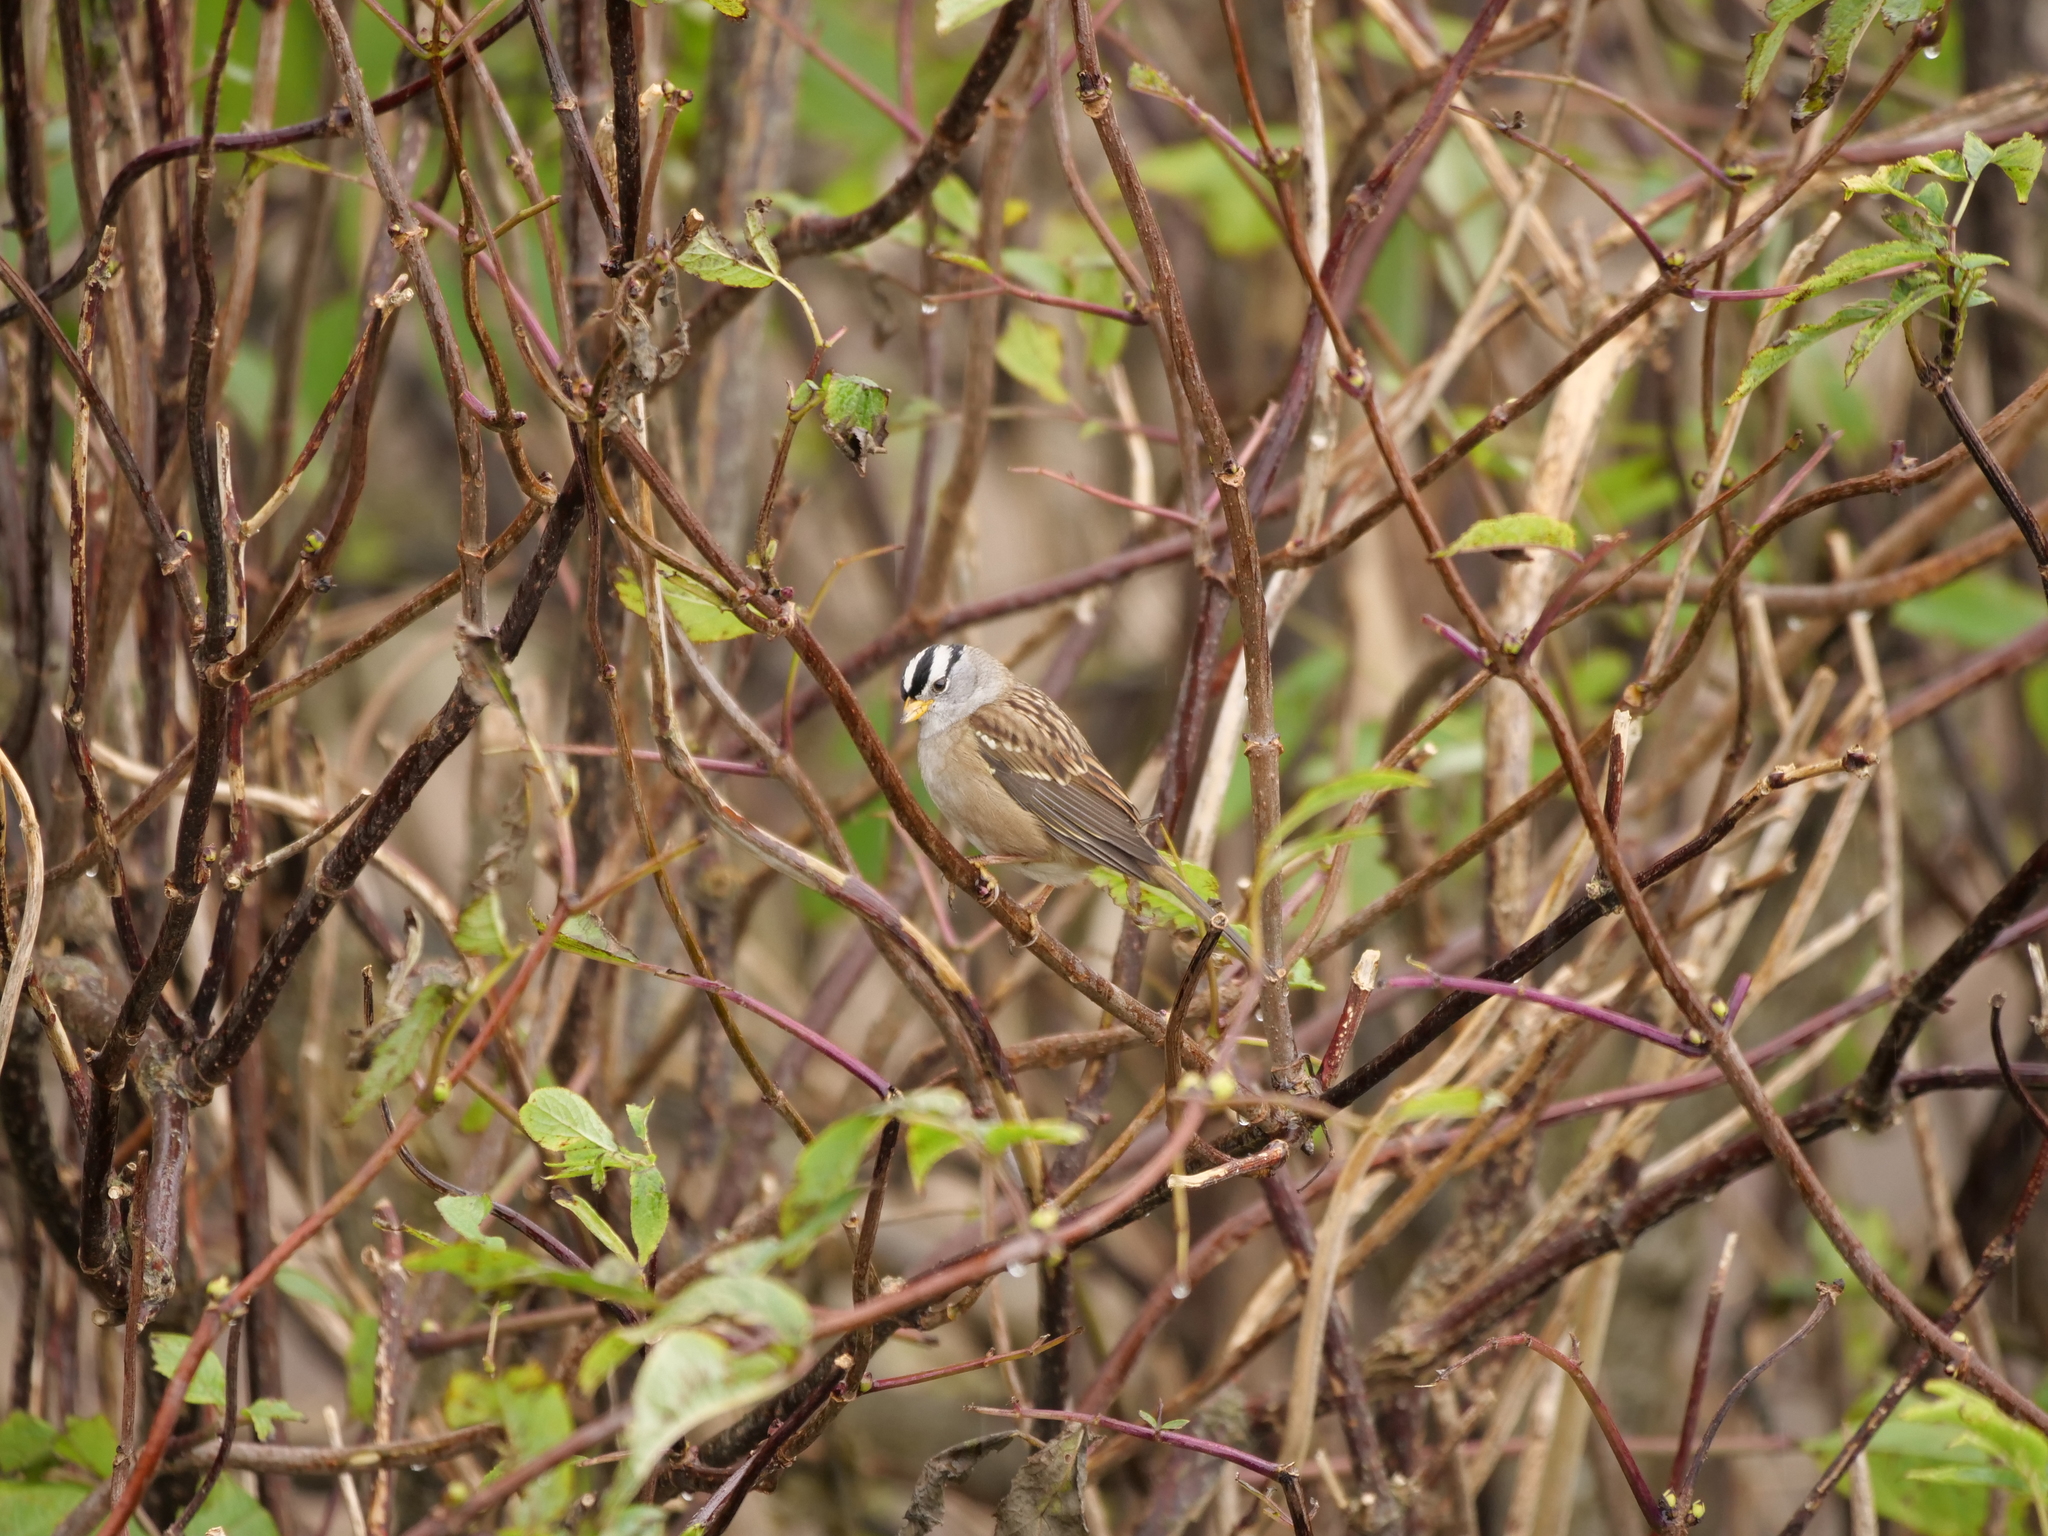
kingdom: Animalia
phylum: Chordata
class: Aves
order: Passeriformes
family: Passerellidae
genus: Zonotrichia
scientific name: Zonotrichia leucophrys
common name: White-crowned sparrow
